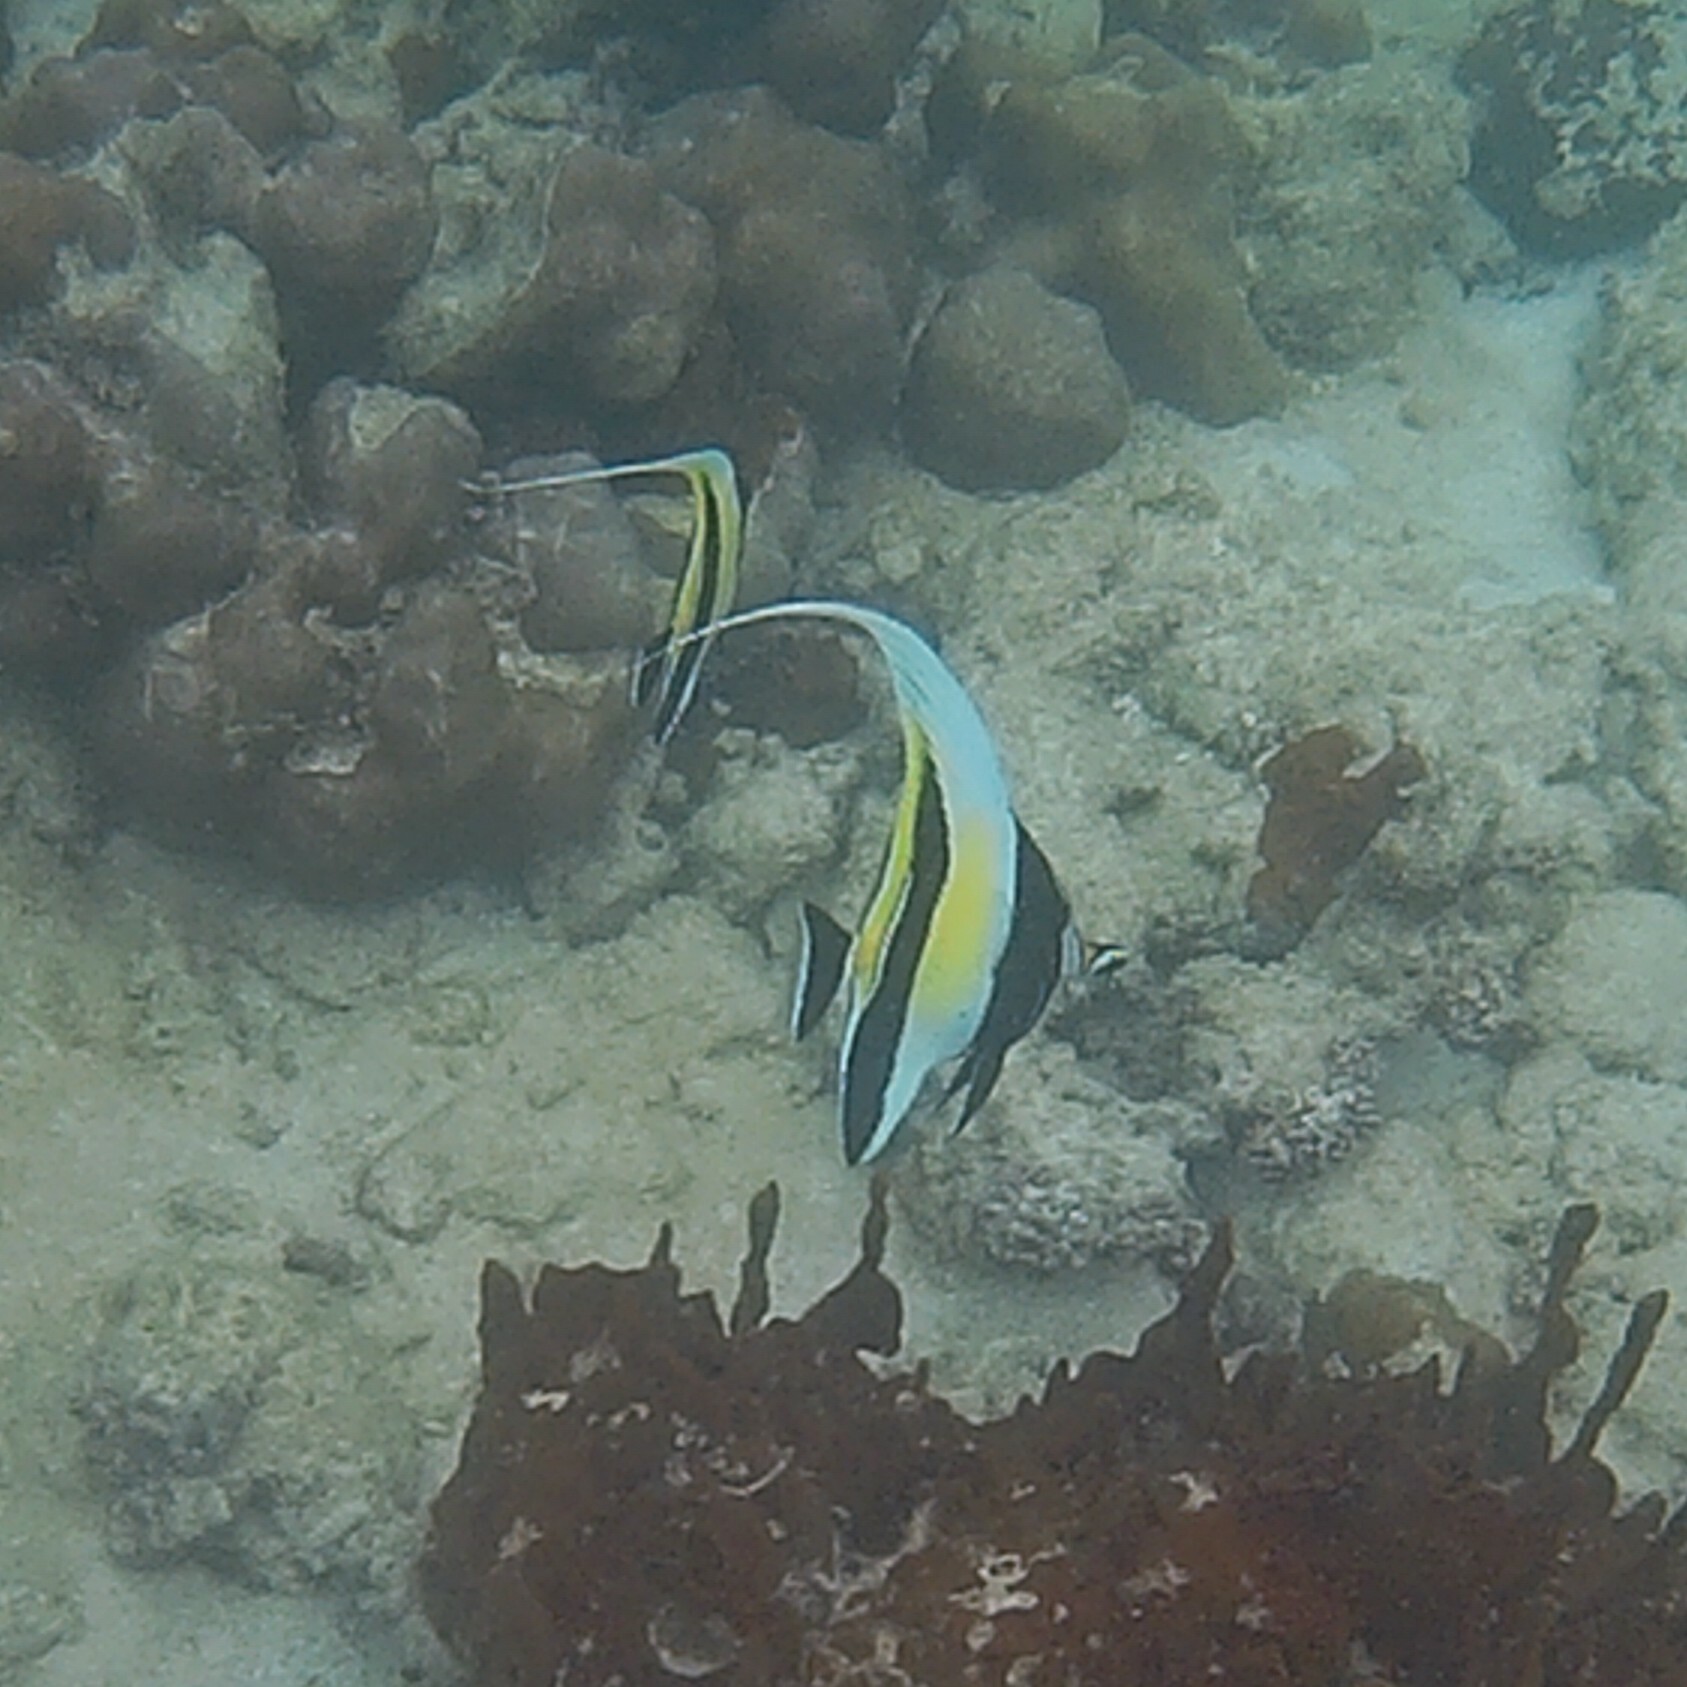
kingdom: Animalia
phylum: Chordata
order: Perciformes
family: Zanclidae
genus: Zanclus
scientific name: Zanclus cornutus
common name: Moorish idol
